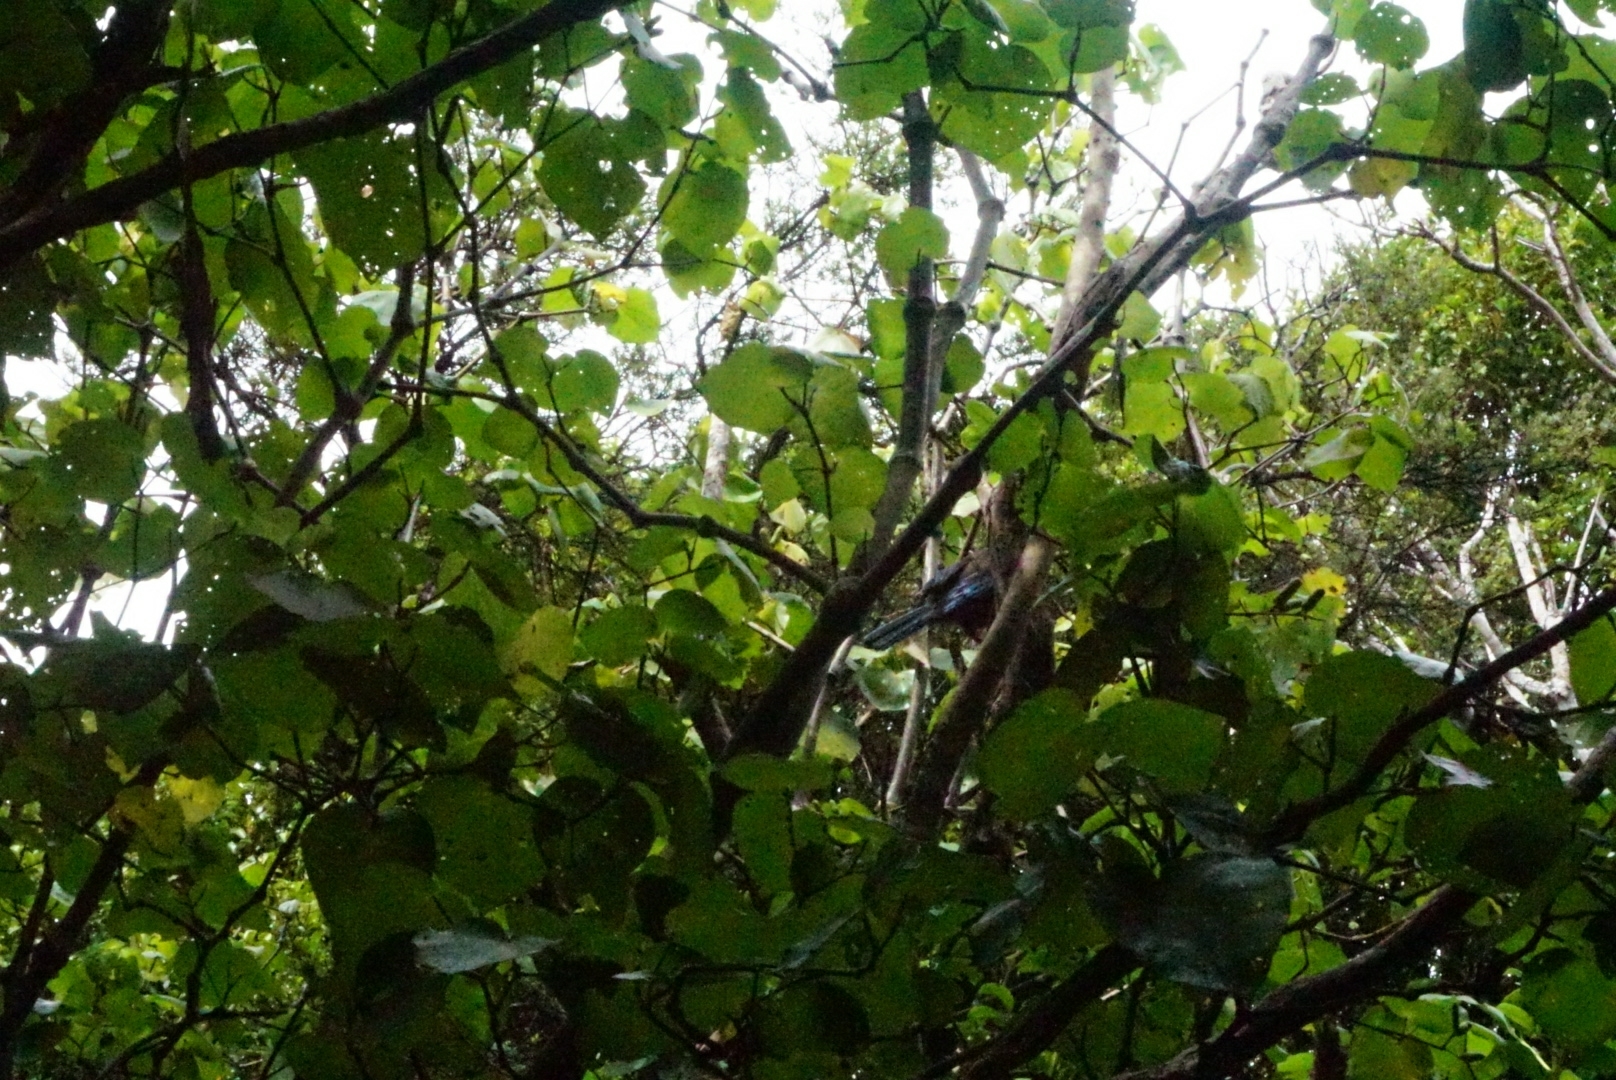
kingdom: Animalia
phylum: Chordata
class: Aves
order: Passeriformes
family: Meliphagidae
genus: Prosthemadera
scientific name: Prosthemadera novaeseelandiae
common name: Tui
